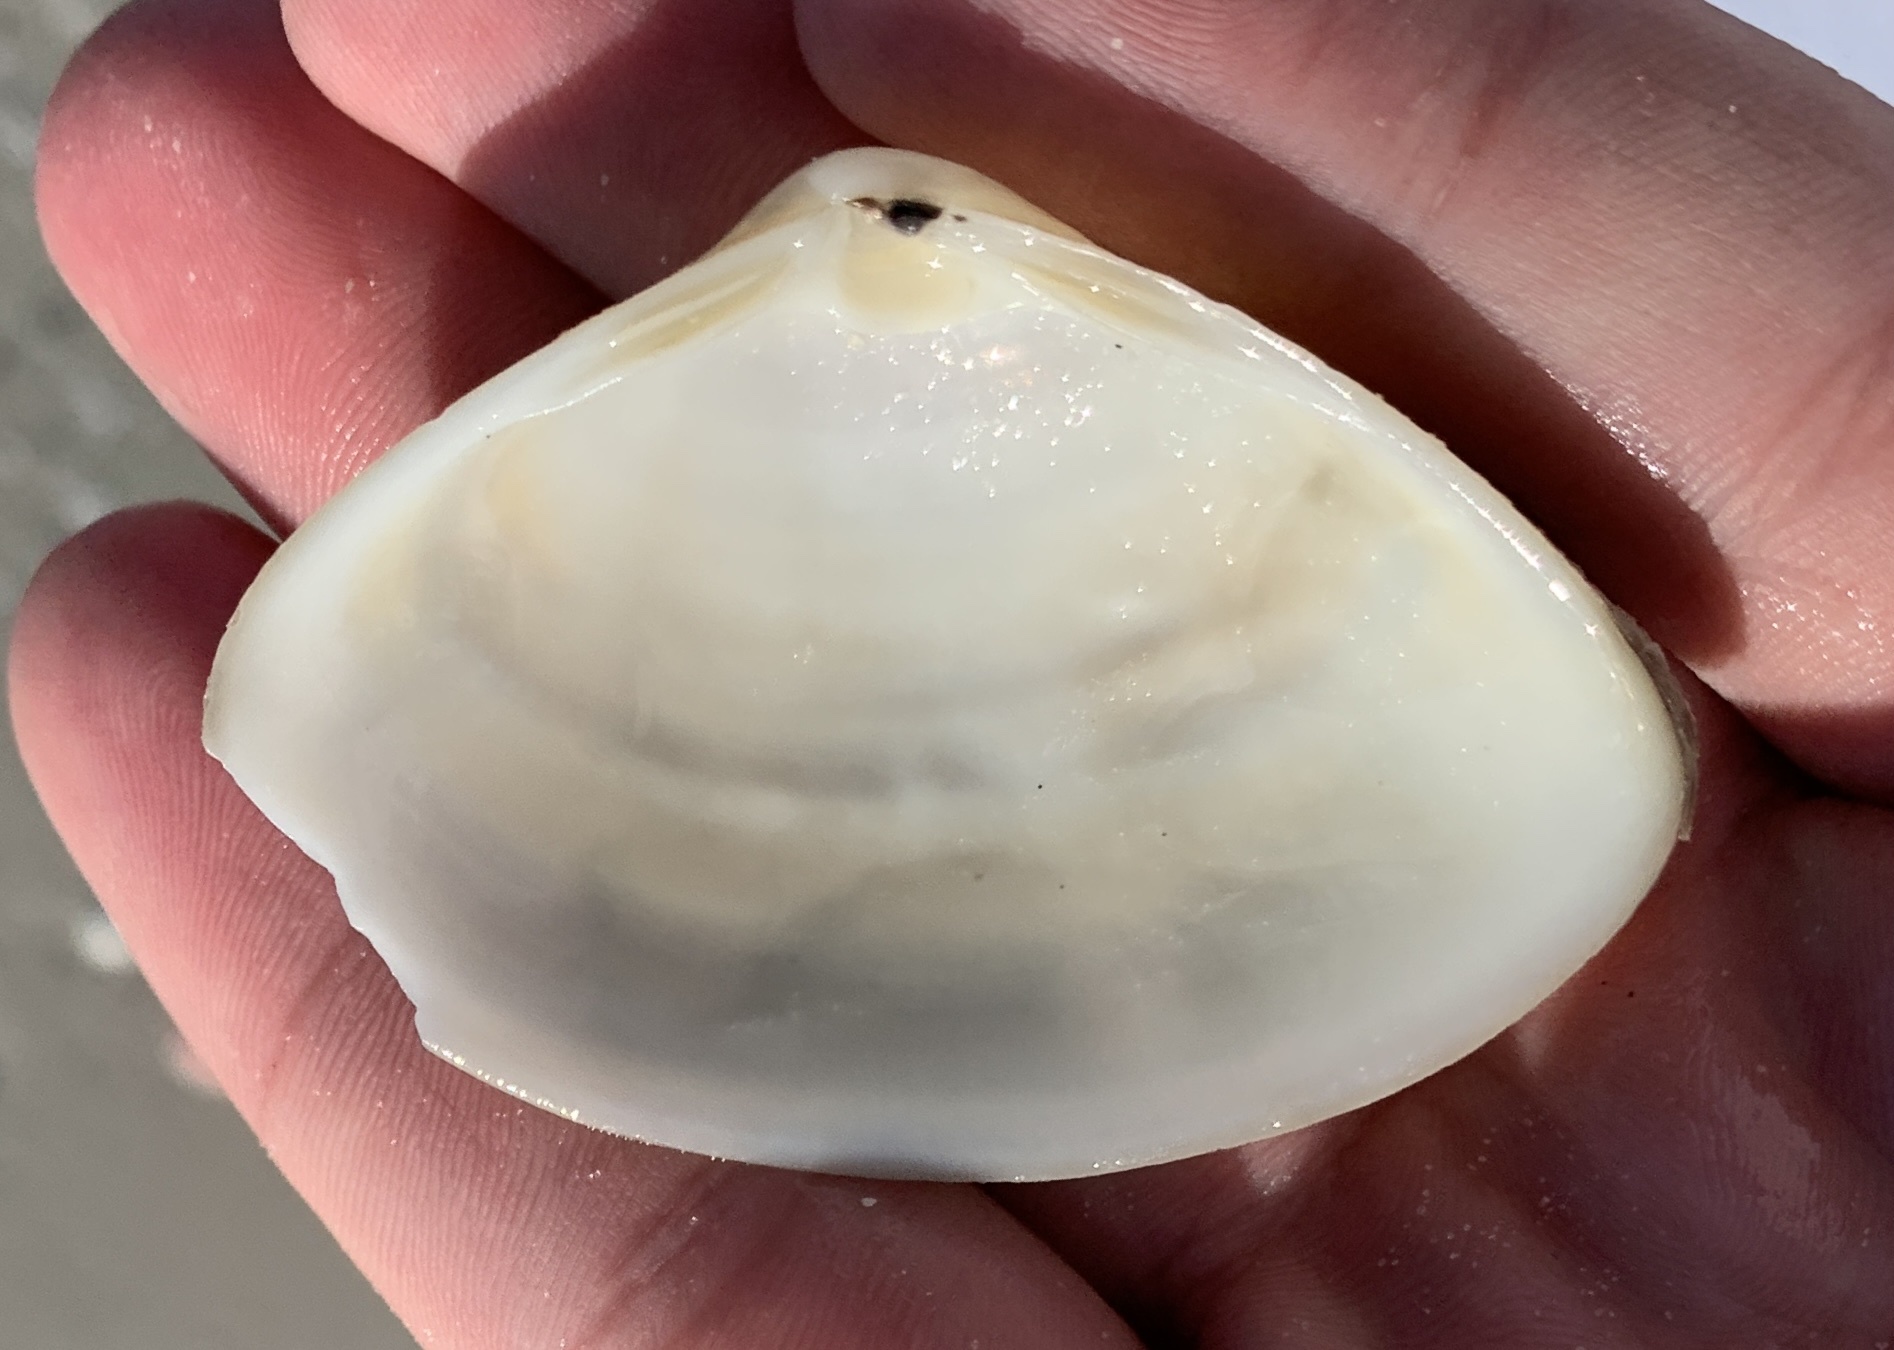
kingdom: Animalia
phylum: Mollusca
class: Bivalvia
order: Venerida
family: Mactridae
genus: Spisula
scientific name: Spisula raveneli
